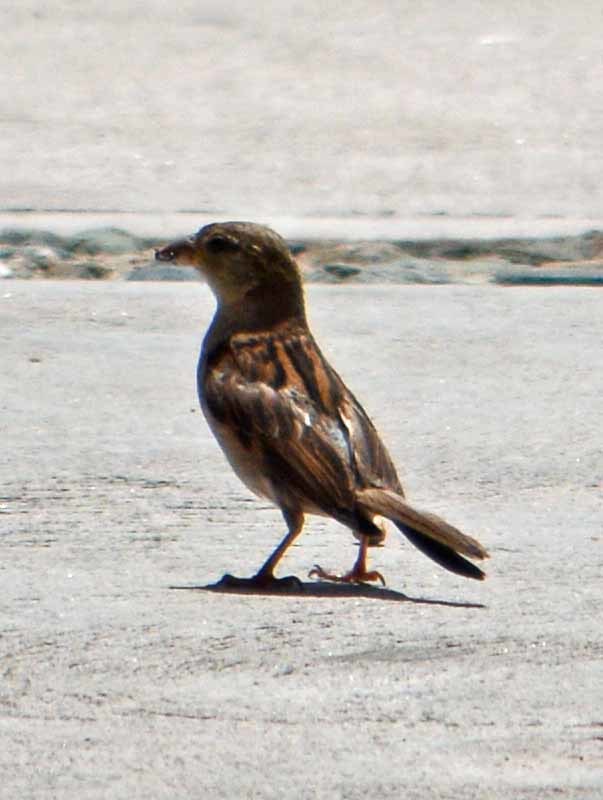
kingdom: Animalia
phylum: Chordata
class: Aves
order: Passeriformes
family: Passeridae
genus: Passer
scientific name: Passer domesticus
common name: House sparrow
